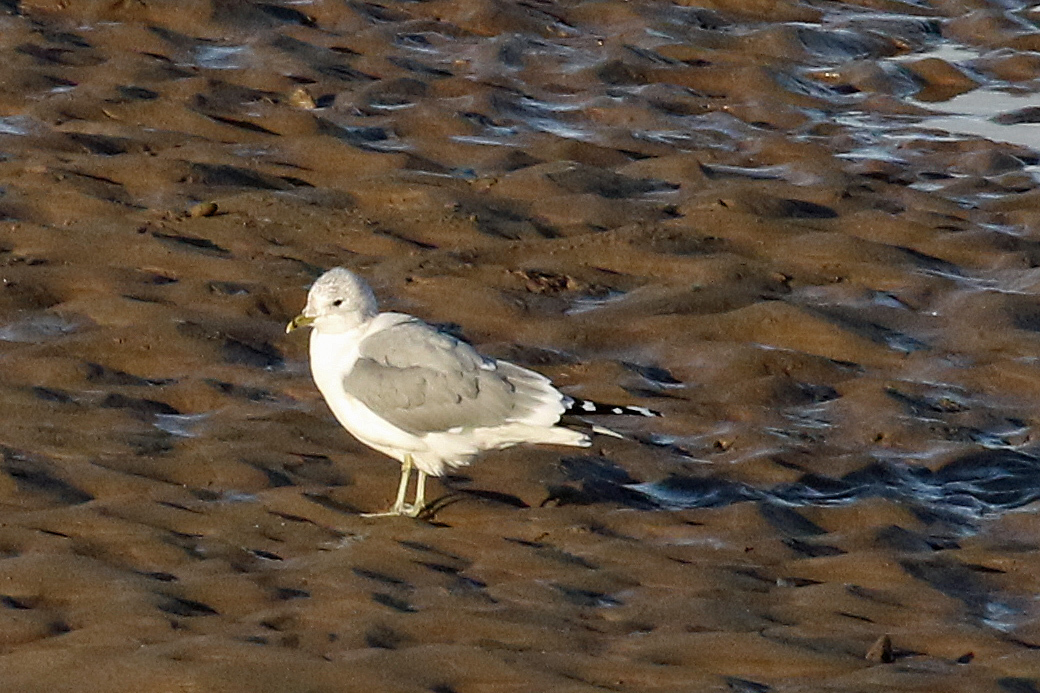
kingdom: Animalia
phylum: Chordata
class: Aves
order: Charadriiformes
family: Laridae
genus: Larus
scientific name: Larus canus
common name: Mew gull
